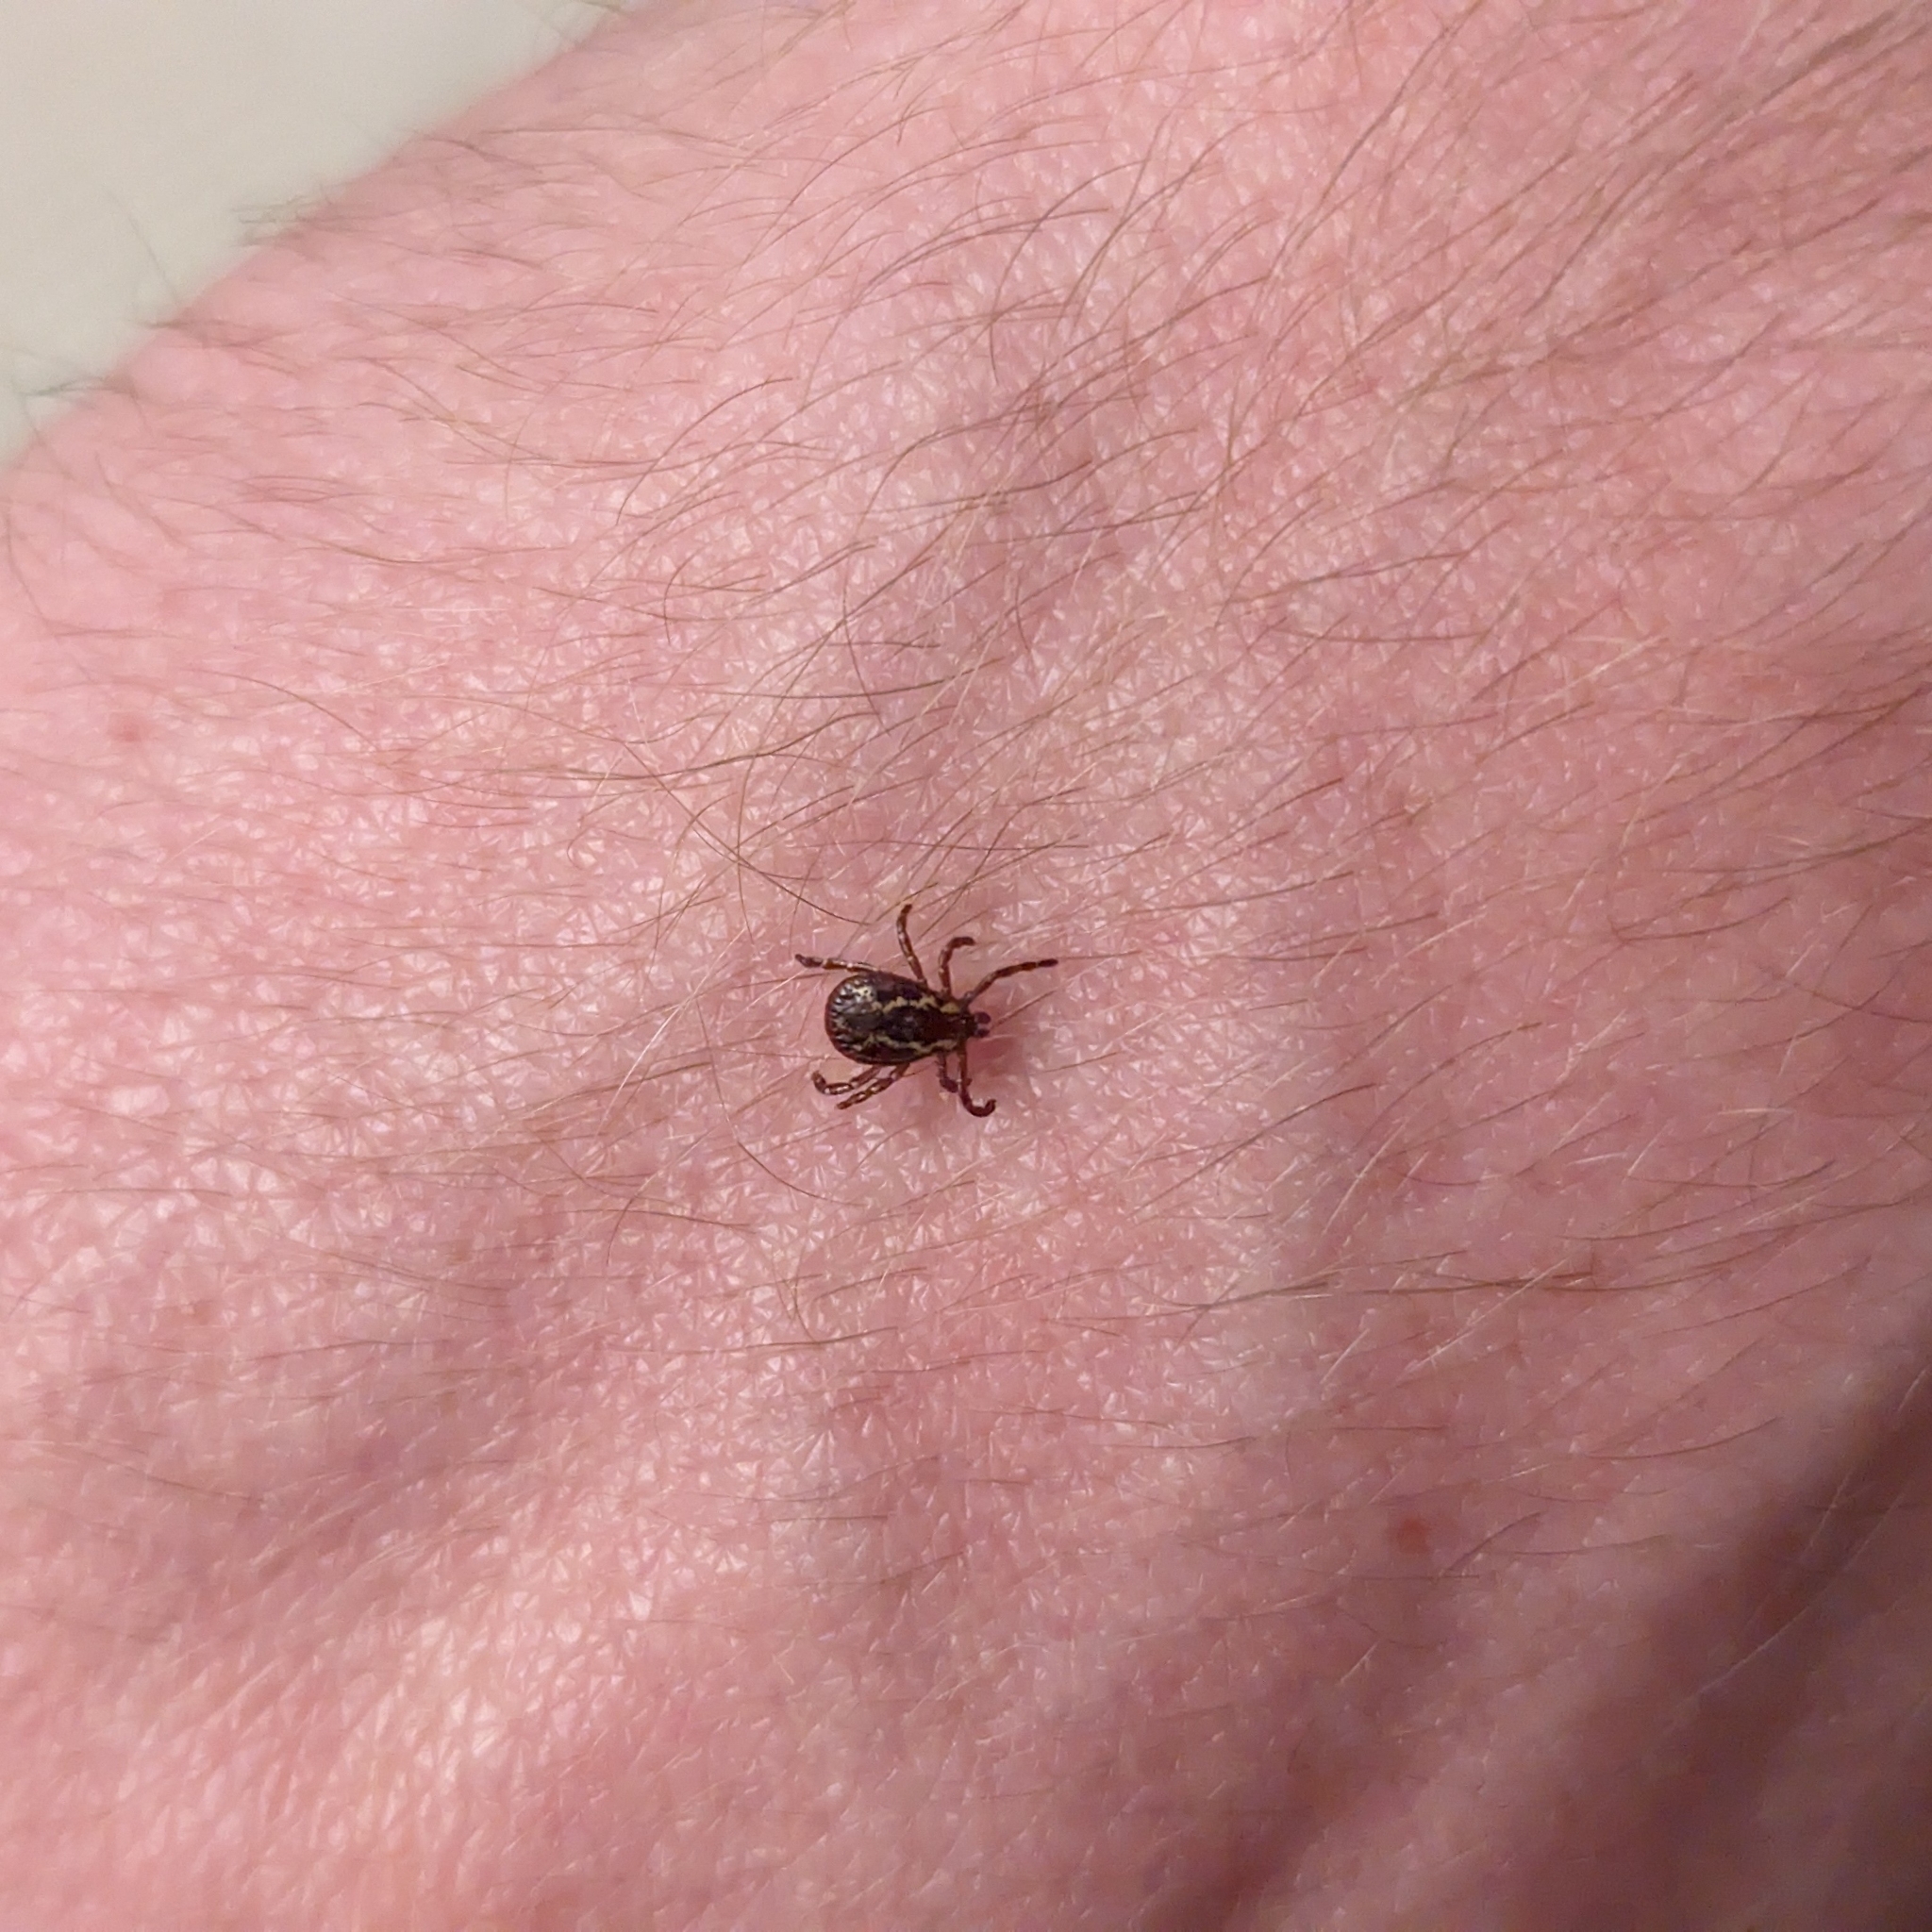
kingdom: Animalia
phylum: Arthropoda
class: Arachnida
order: Ixodida
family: Ixodidae
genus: Dermacentor
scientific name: Dermacentor variabilis
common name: American dog tick
